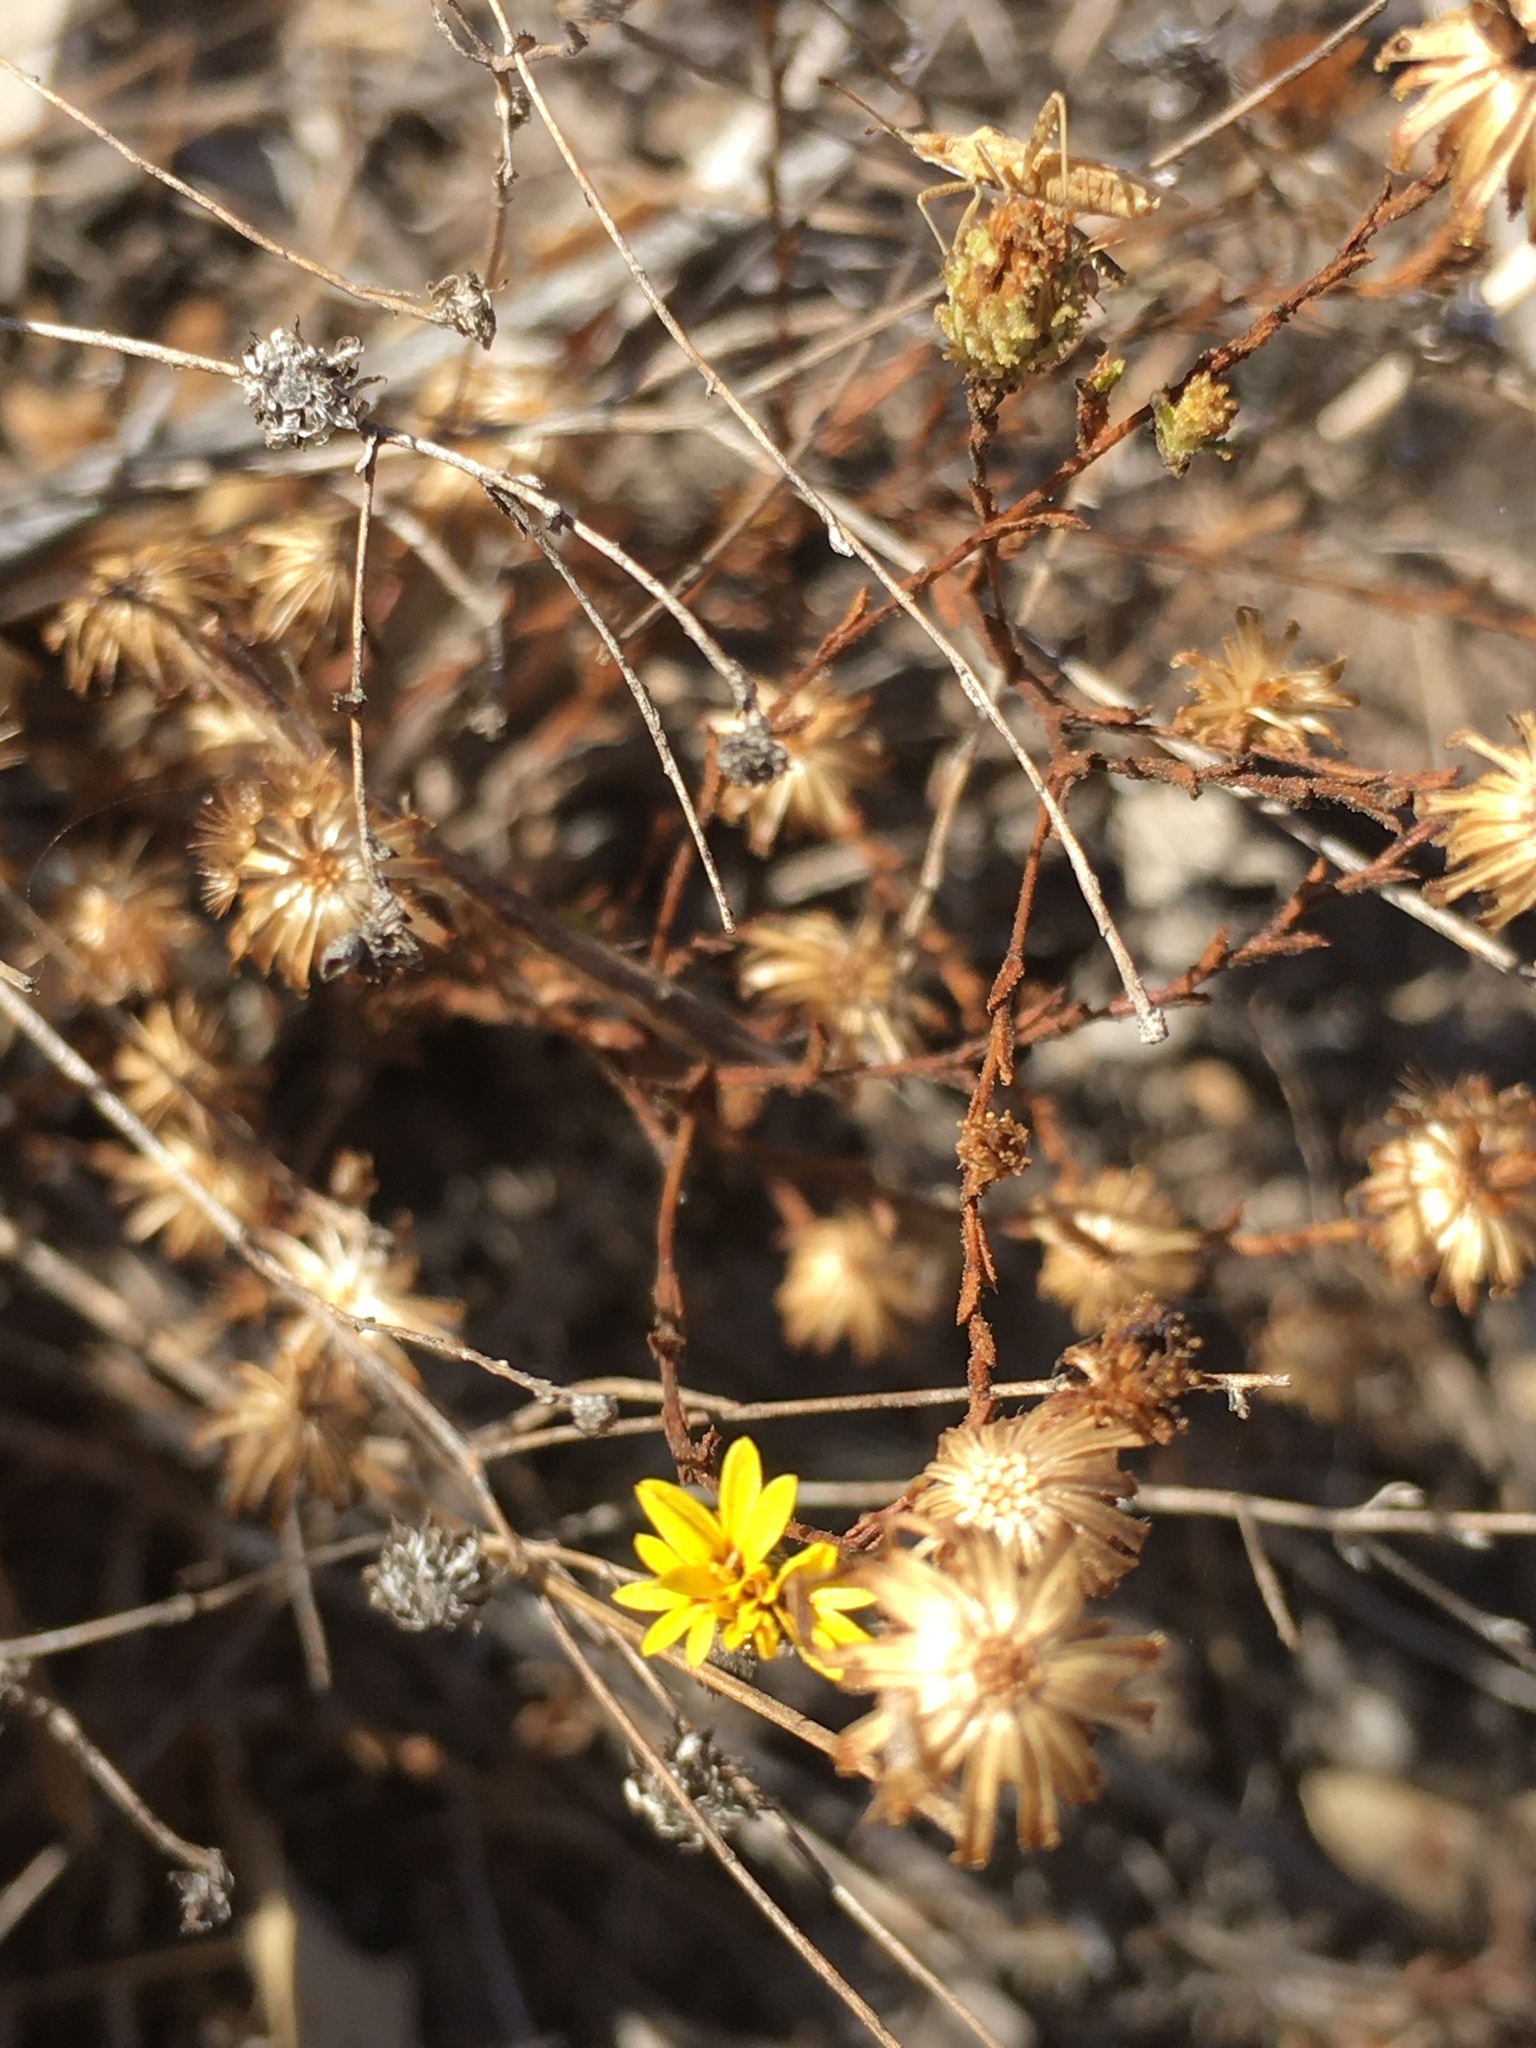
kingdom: Plantae
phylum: Tracheophyta
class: Magnoliopsida
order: Asterales
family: Asteraceae
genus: Lessingia
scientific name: Lessingia glandulifera
